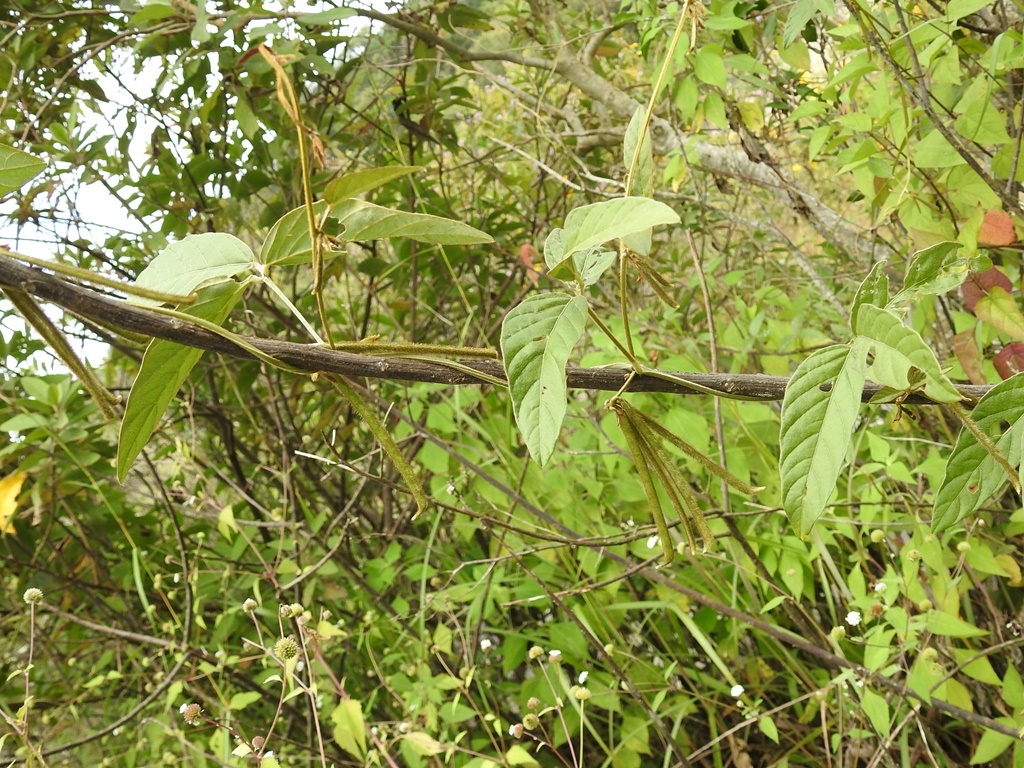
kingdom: Plantae
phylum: Tracheophyta
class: Magnoliopsida
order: Fabales
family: Fabaceae
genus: Teramnus
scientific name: Teramnus uncinatus
